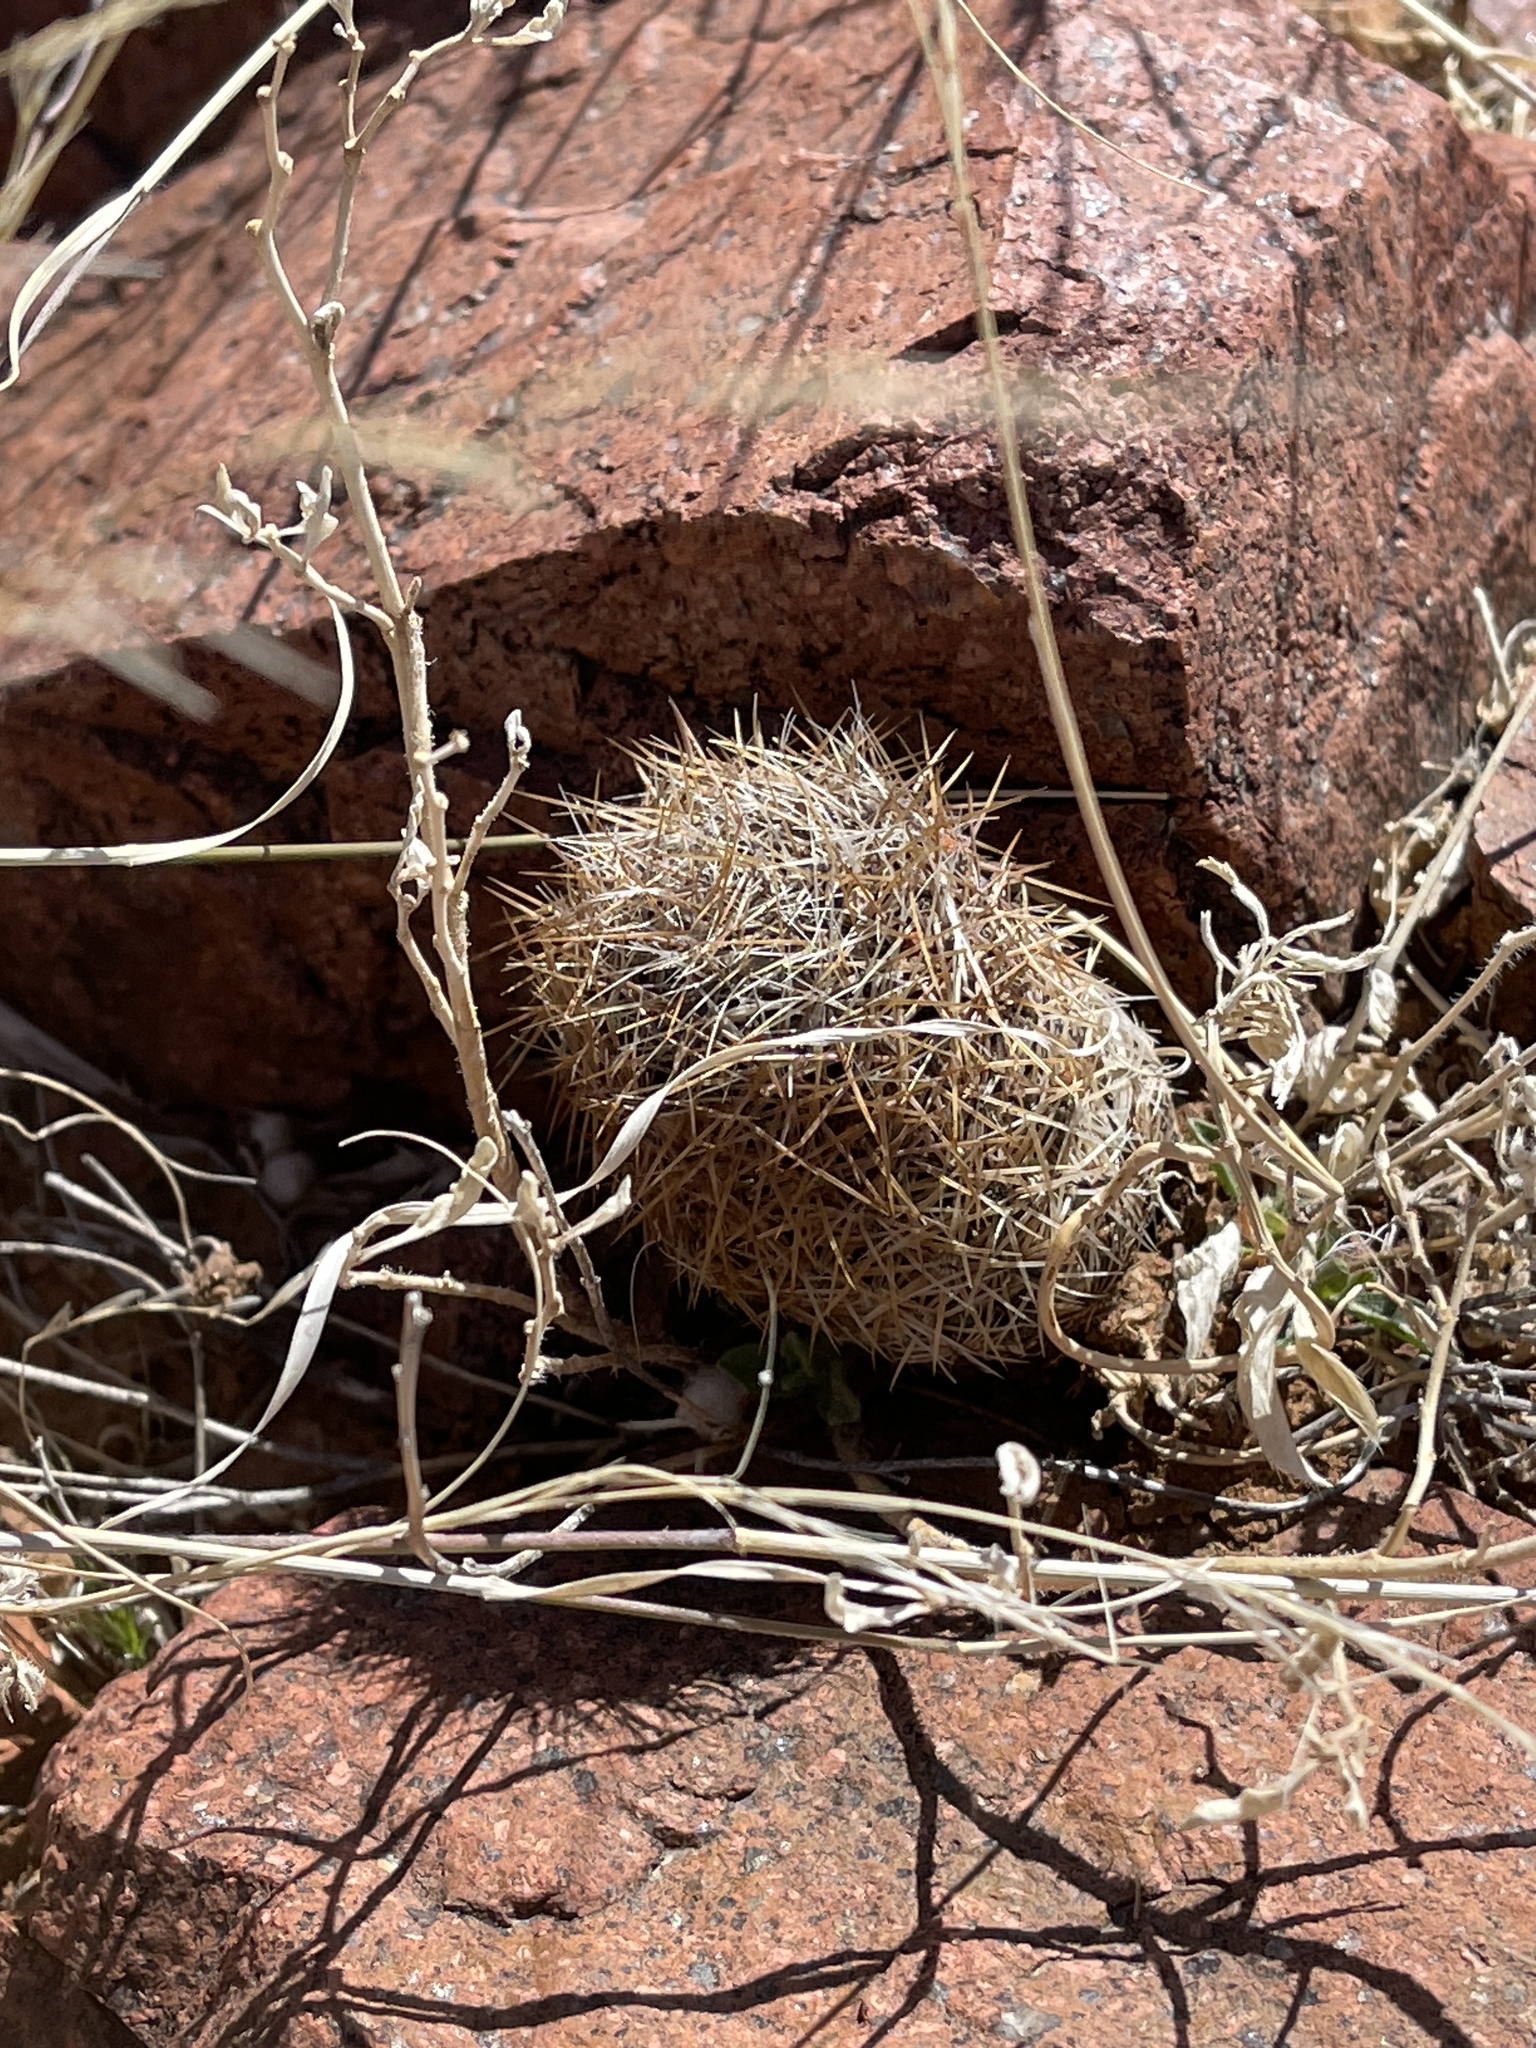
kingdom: Plantae
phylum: Tracheophyta
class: Magnoliopsida
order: Caryophyllales
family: Cactaceae
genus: Sclerocactus
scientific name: Sclerocactus intertextus
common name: White fish-hook cactus
